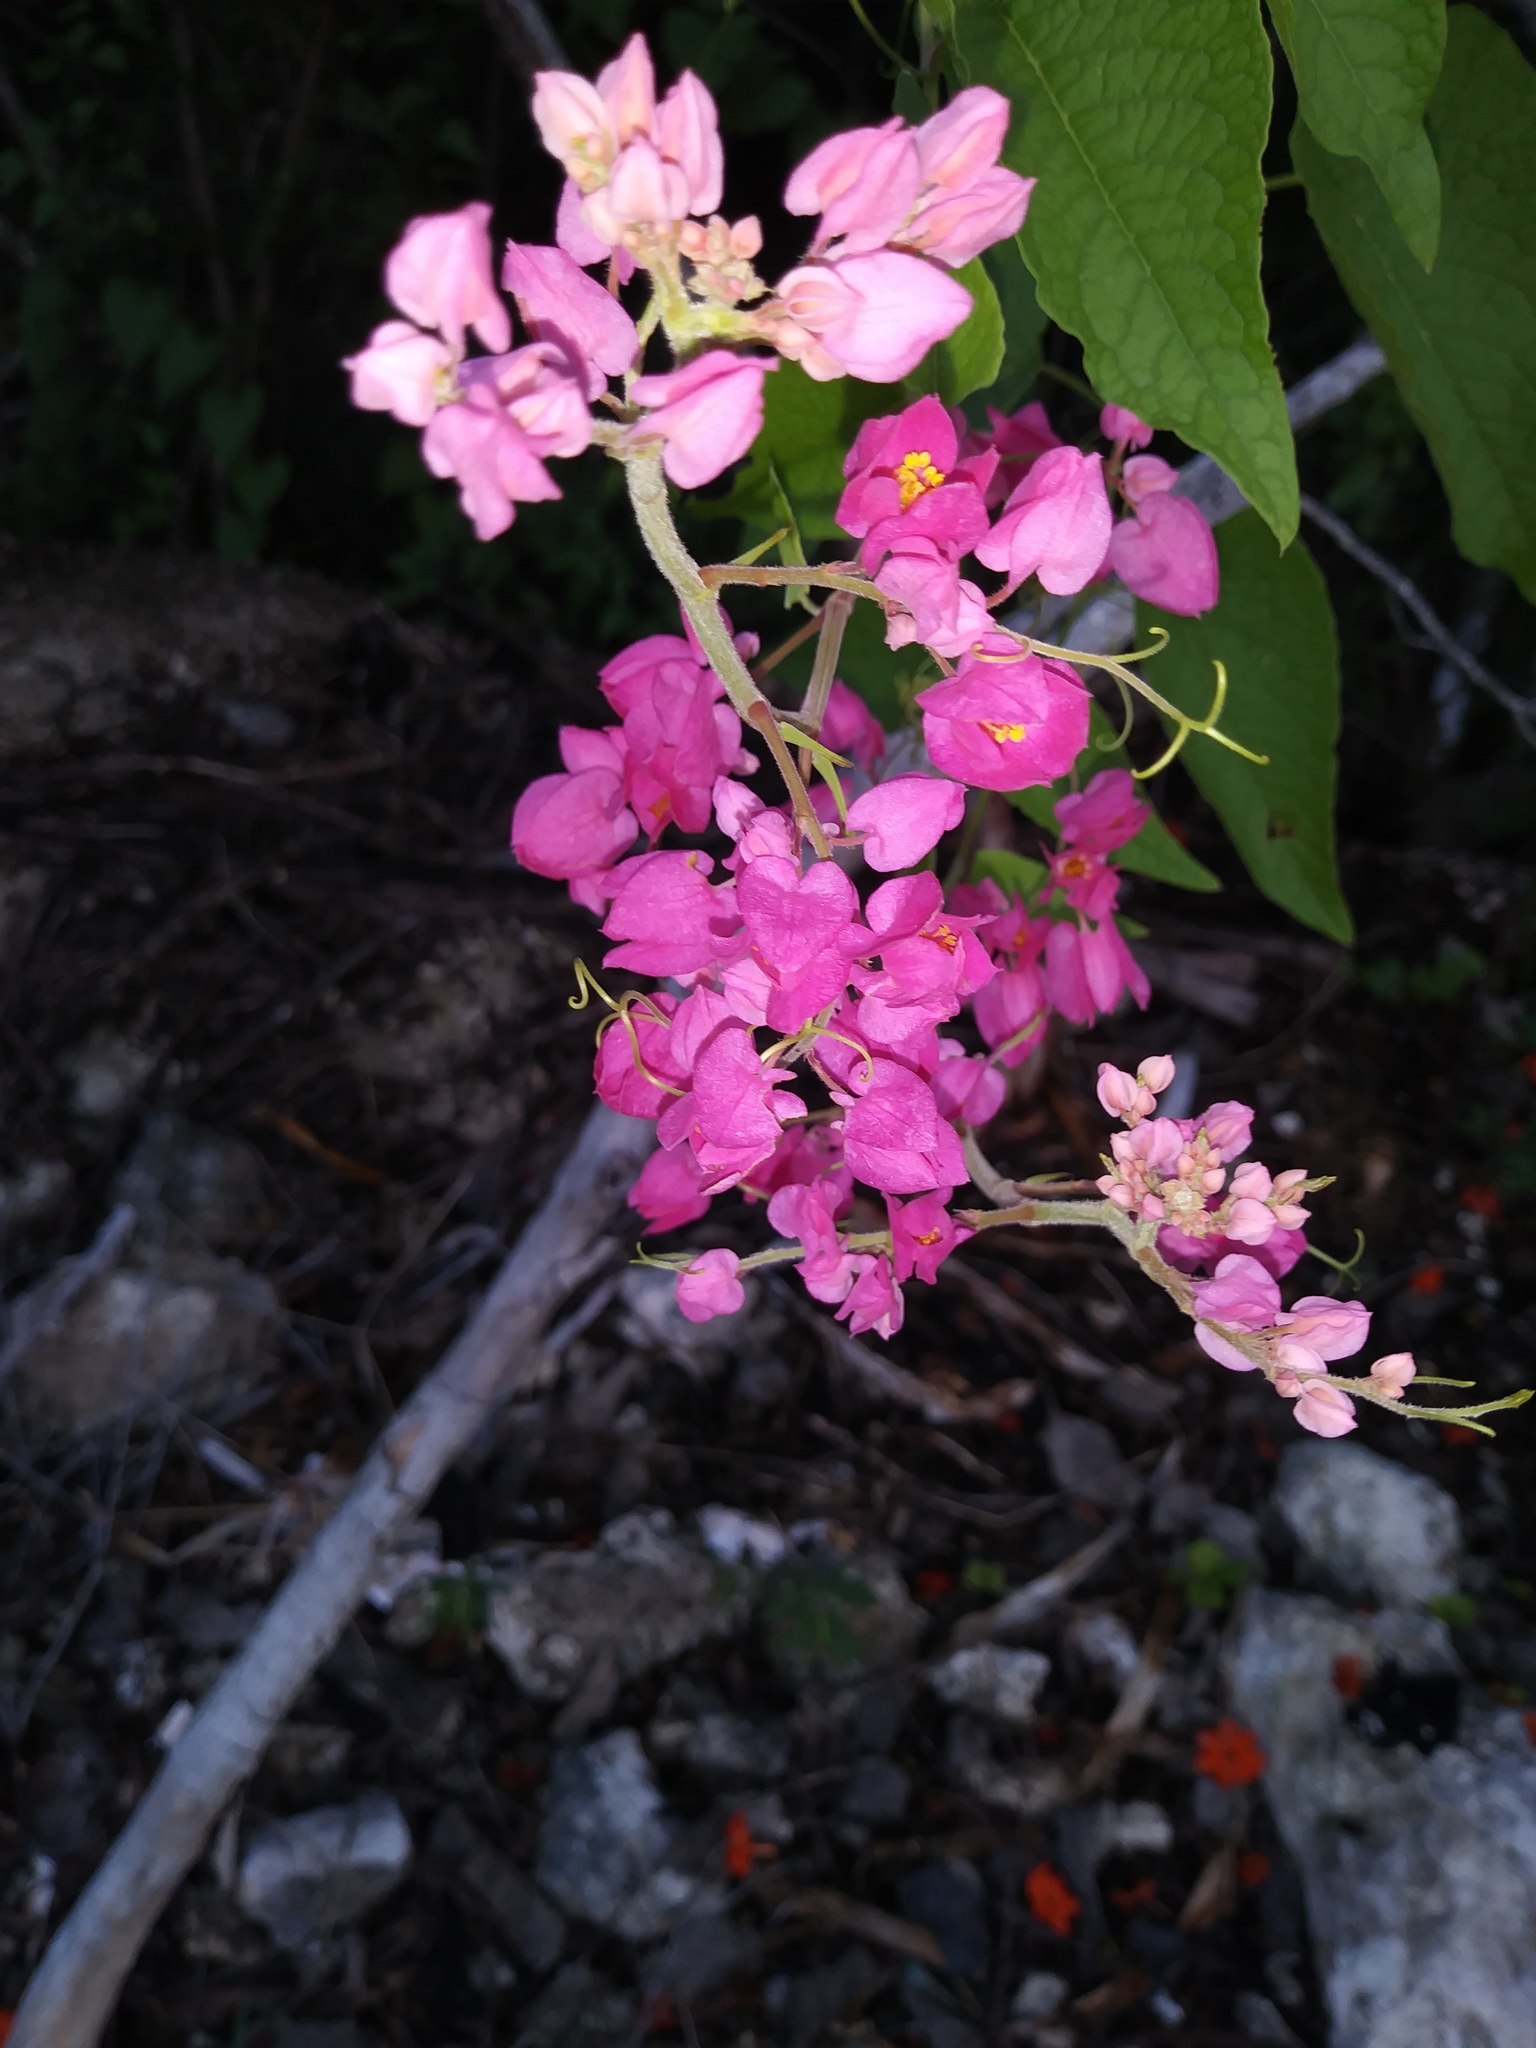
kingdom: Plantae
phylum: Tracheophyta
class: Magnoliopsida
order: Caryophyllales
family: Polygonaceae
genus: Antigonon
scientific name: Antigonon leptopus
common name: Coral vine
